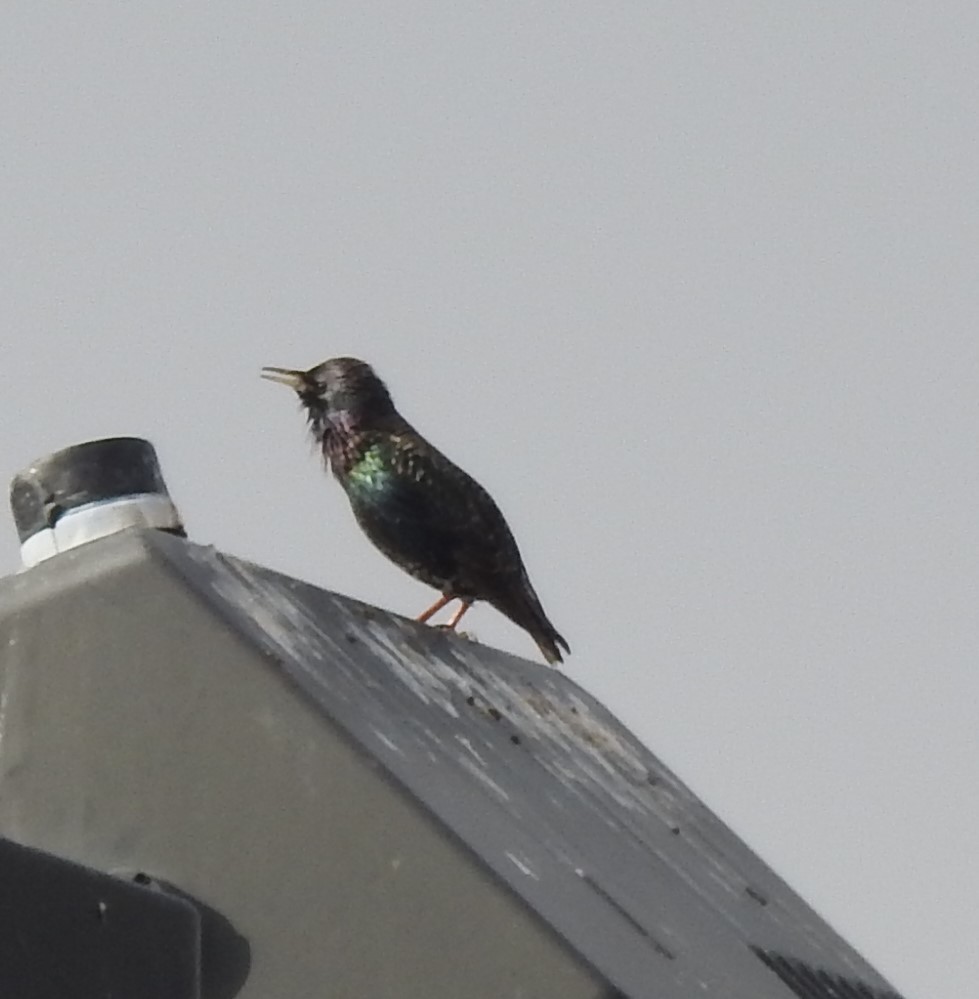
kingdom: Animalia
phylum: Chordata
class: Aves
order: Passeriformes
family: Sturnidae
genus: Sturnus
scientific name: Sturnus vulgaris
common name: Common starling
